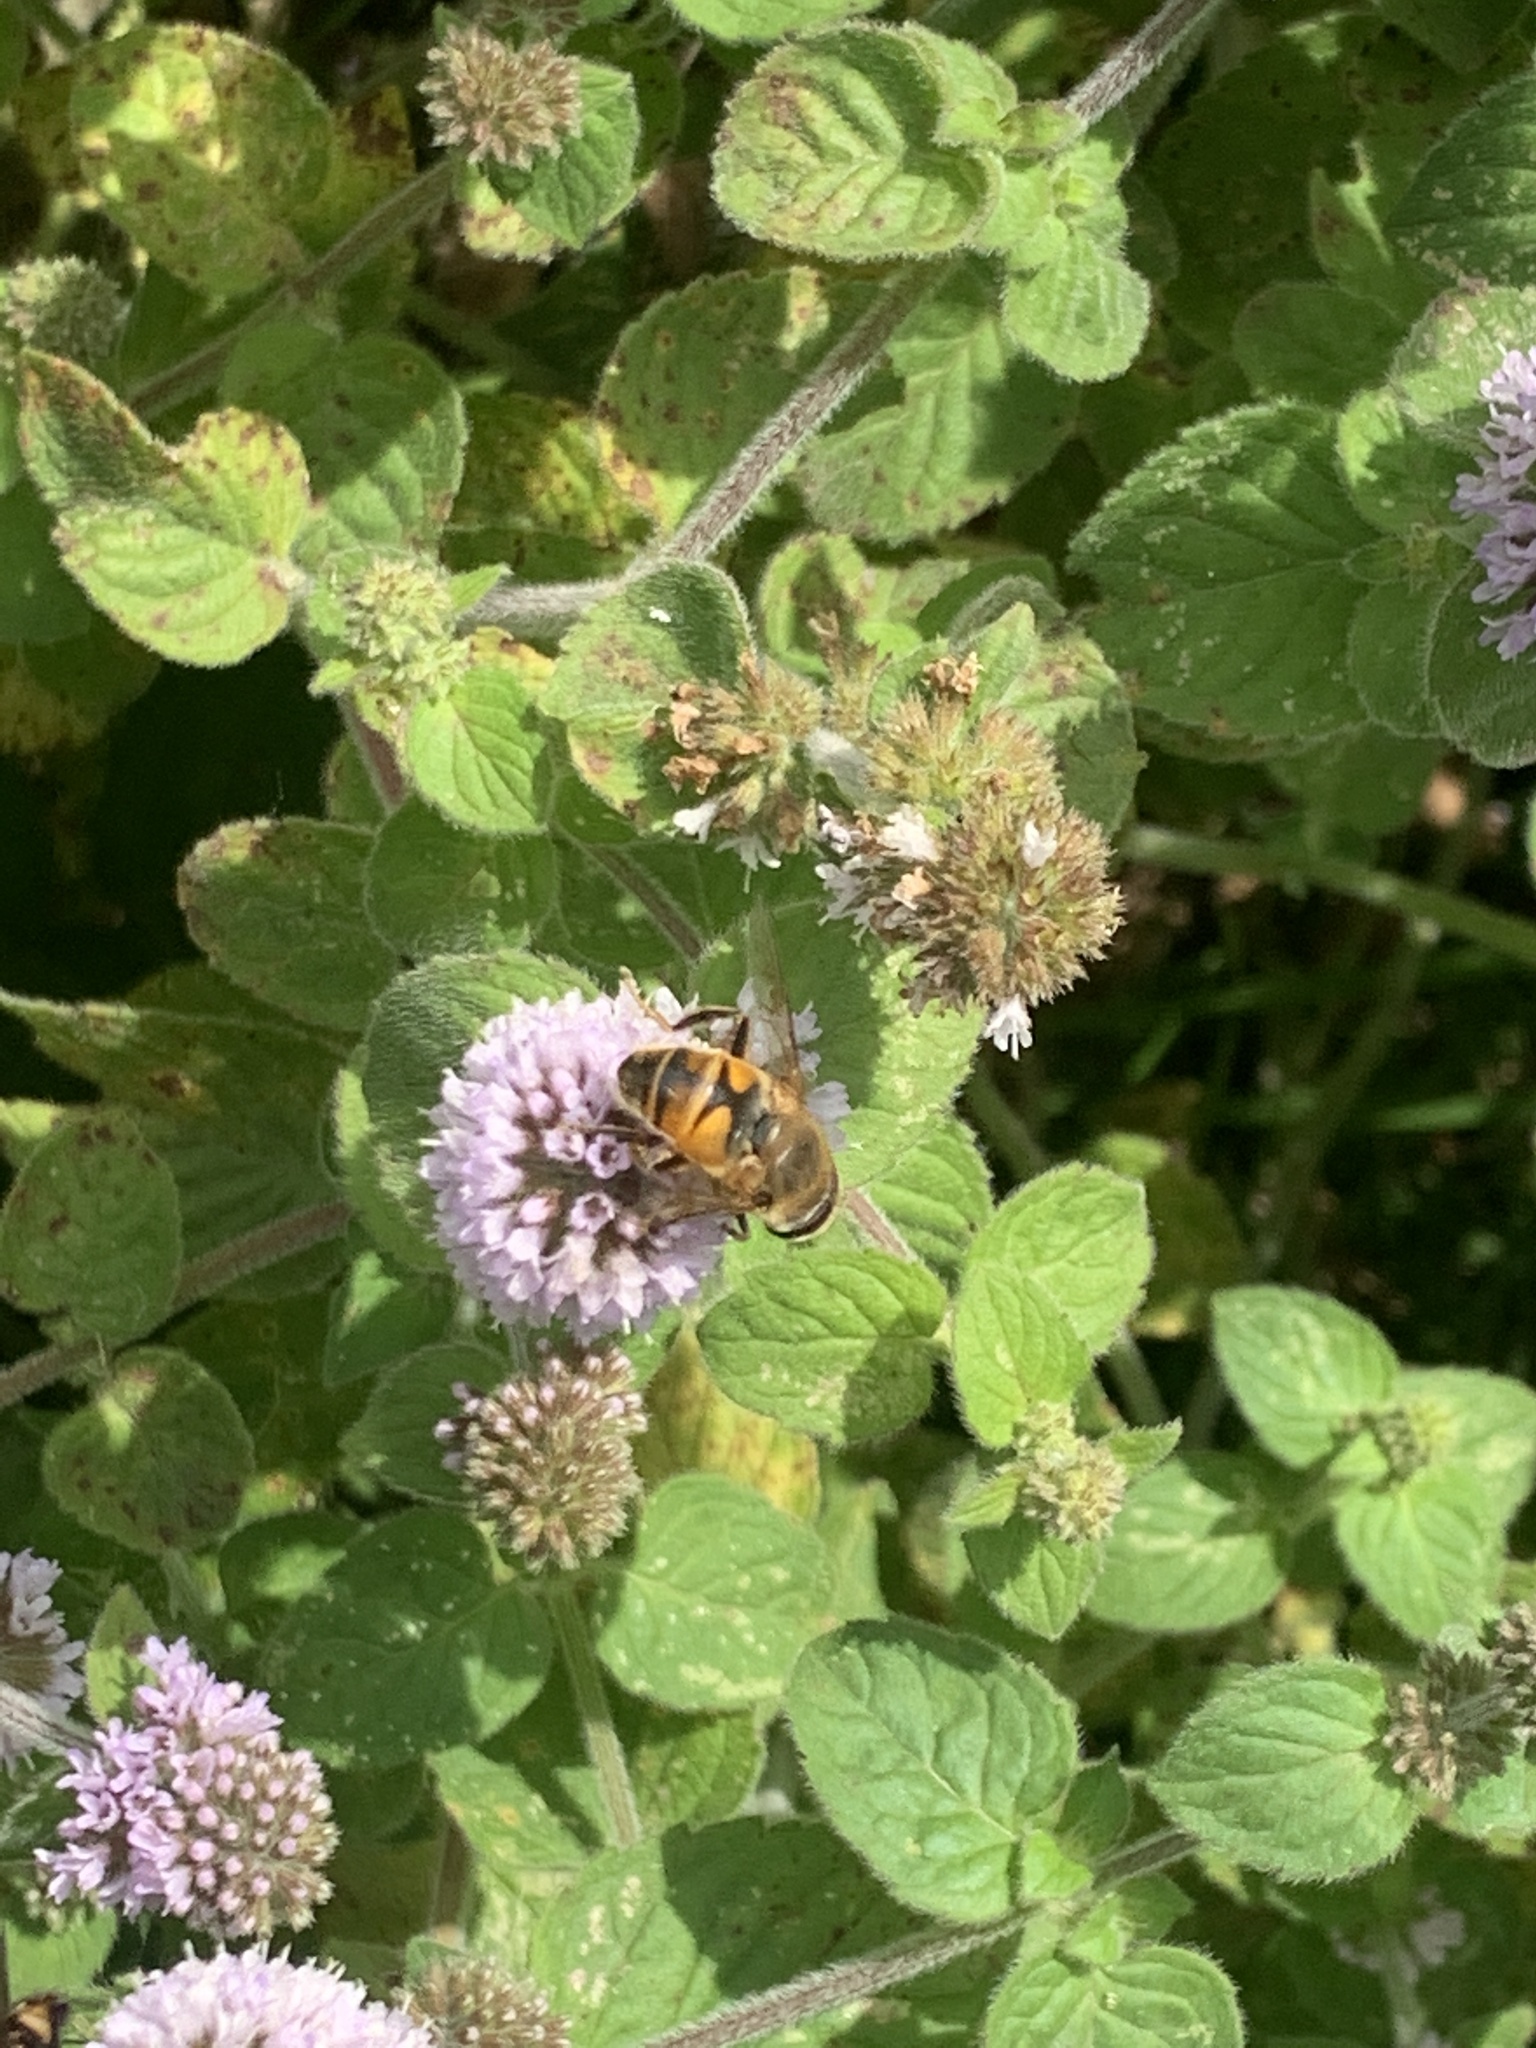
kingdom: Animalia
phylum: Arthropoda
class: Insecta
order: Diptera
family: Syrphidae
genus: Eristalis
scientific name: Eristalis tenax
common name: Drone fly
